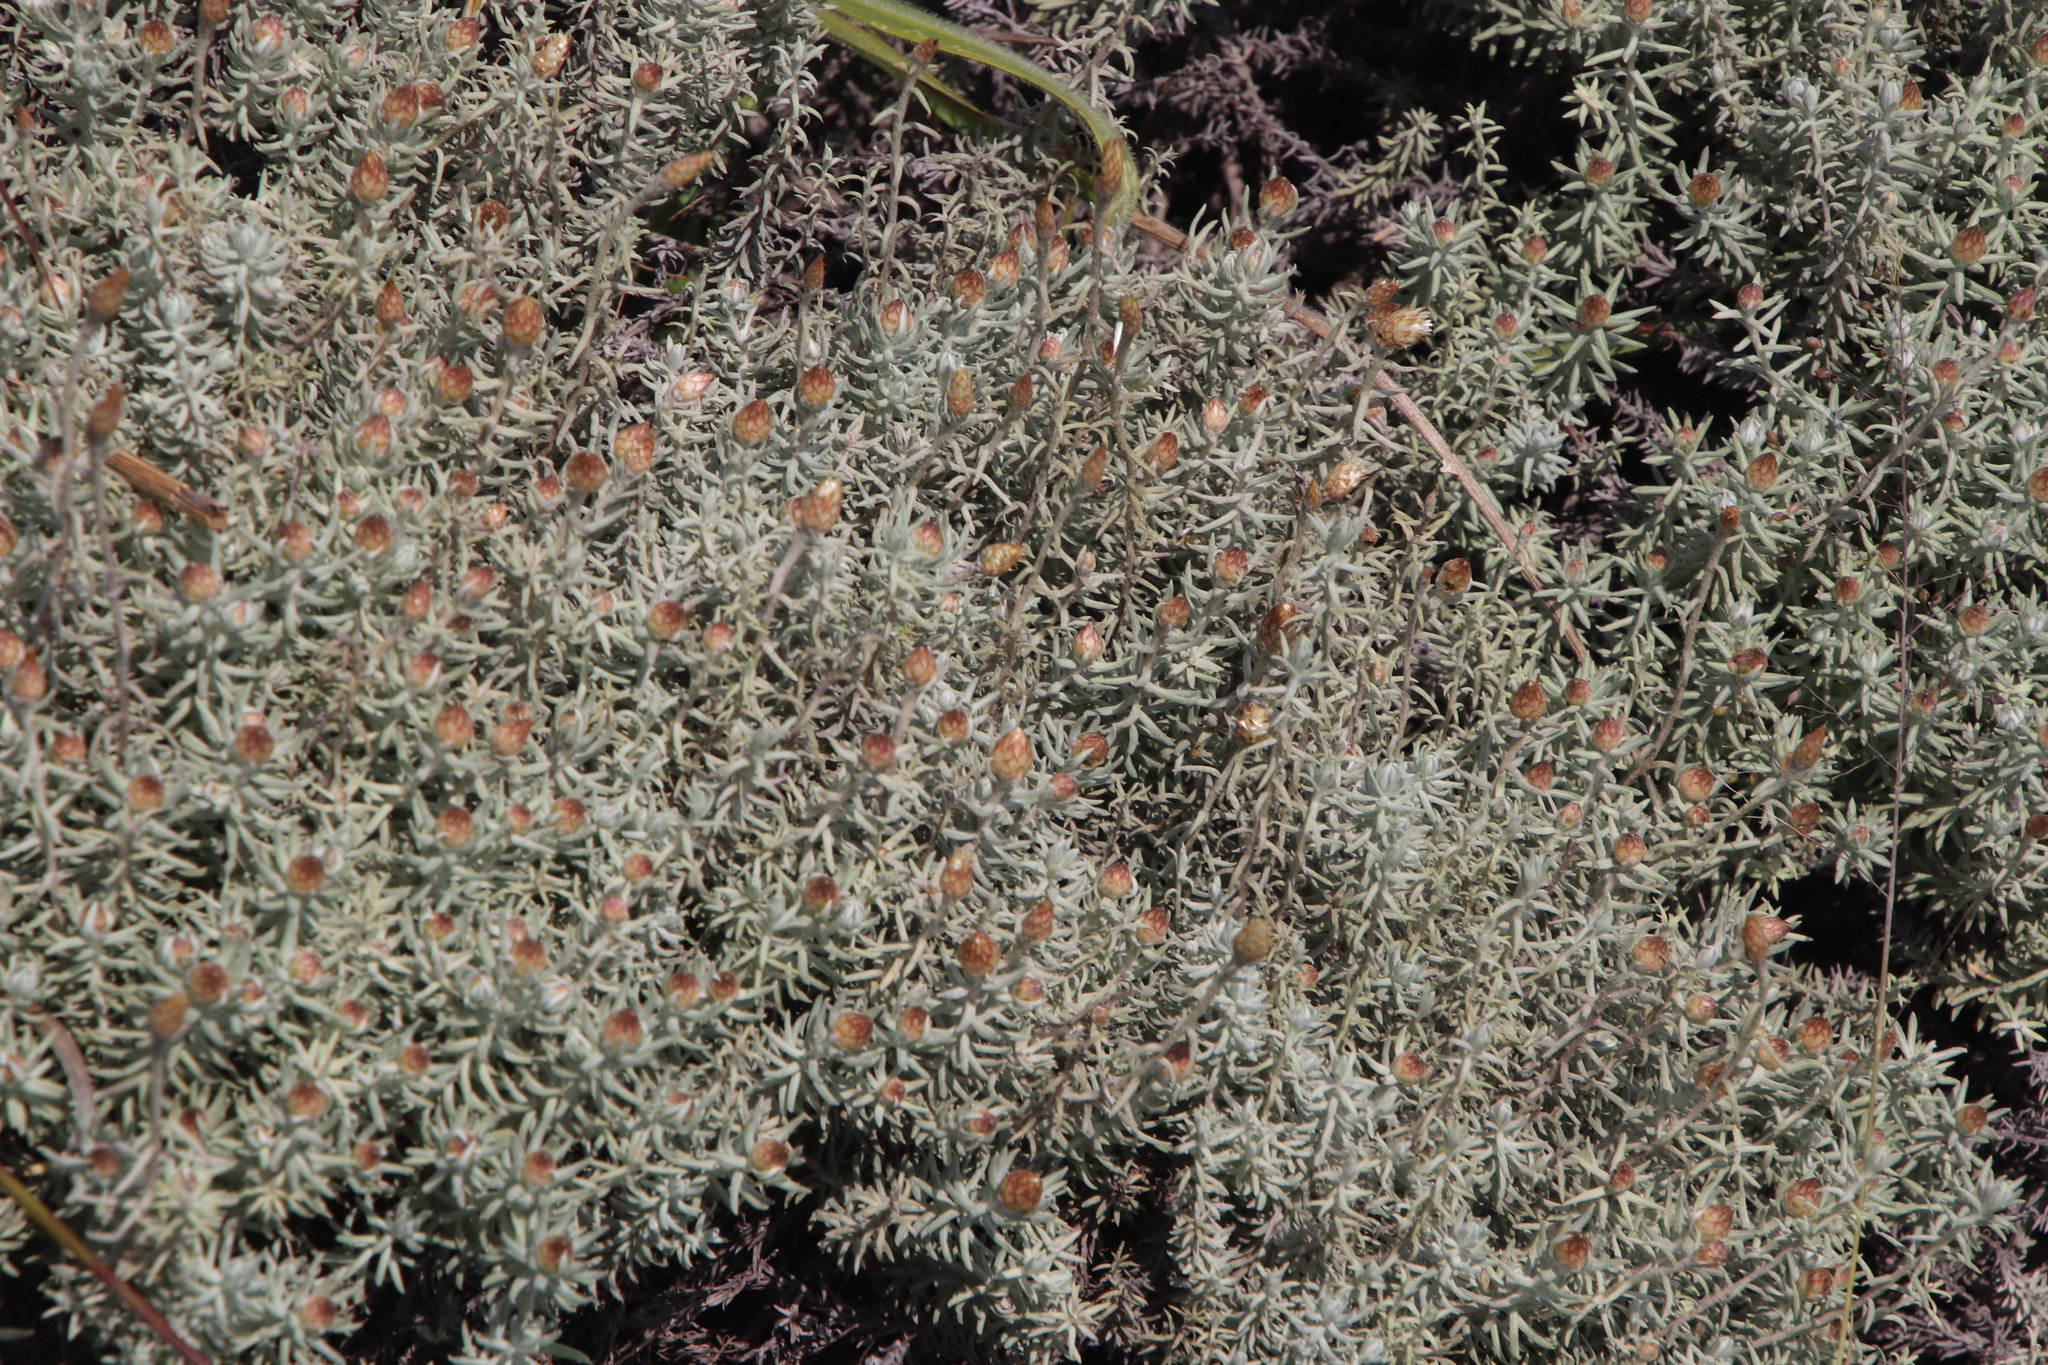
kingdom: Plantae
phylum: Tracheophyta
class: Magnoliopsida
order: Asterales
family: Asteraceae
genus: Helichrysum
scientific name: Helichrysum reflexum
